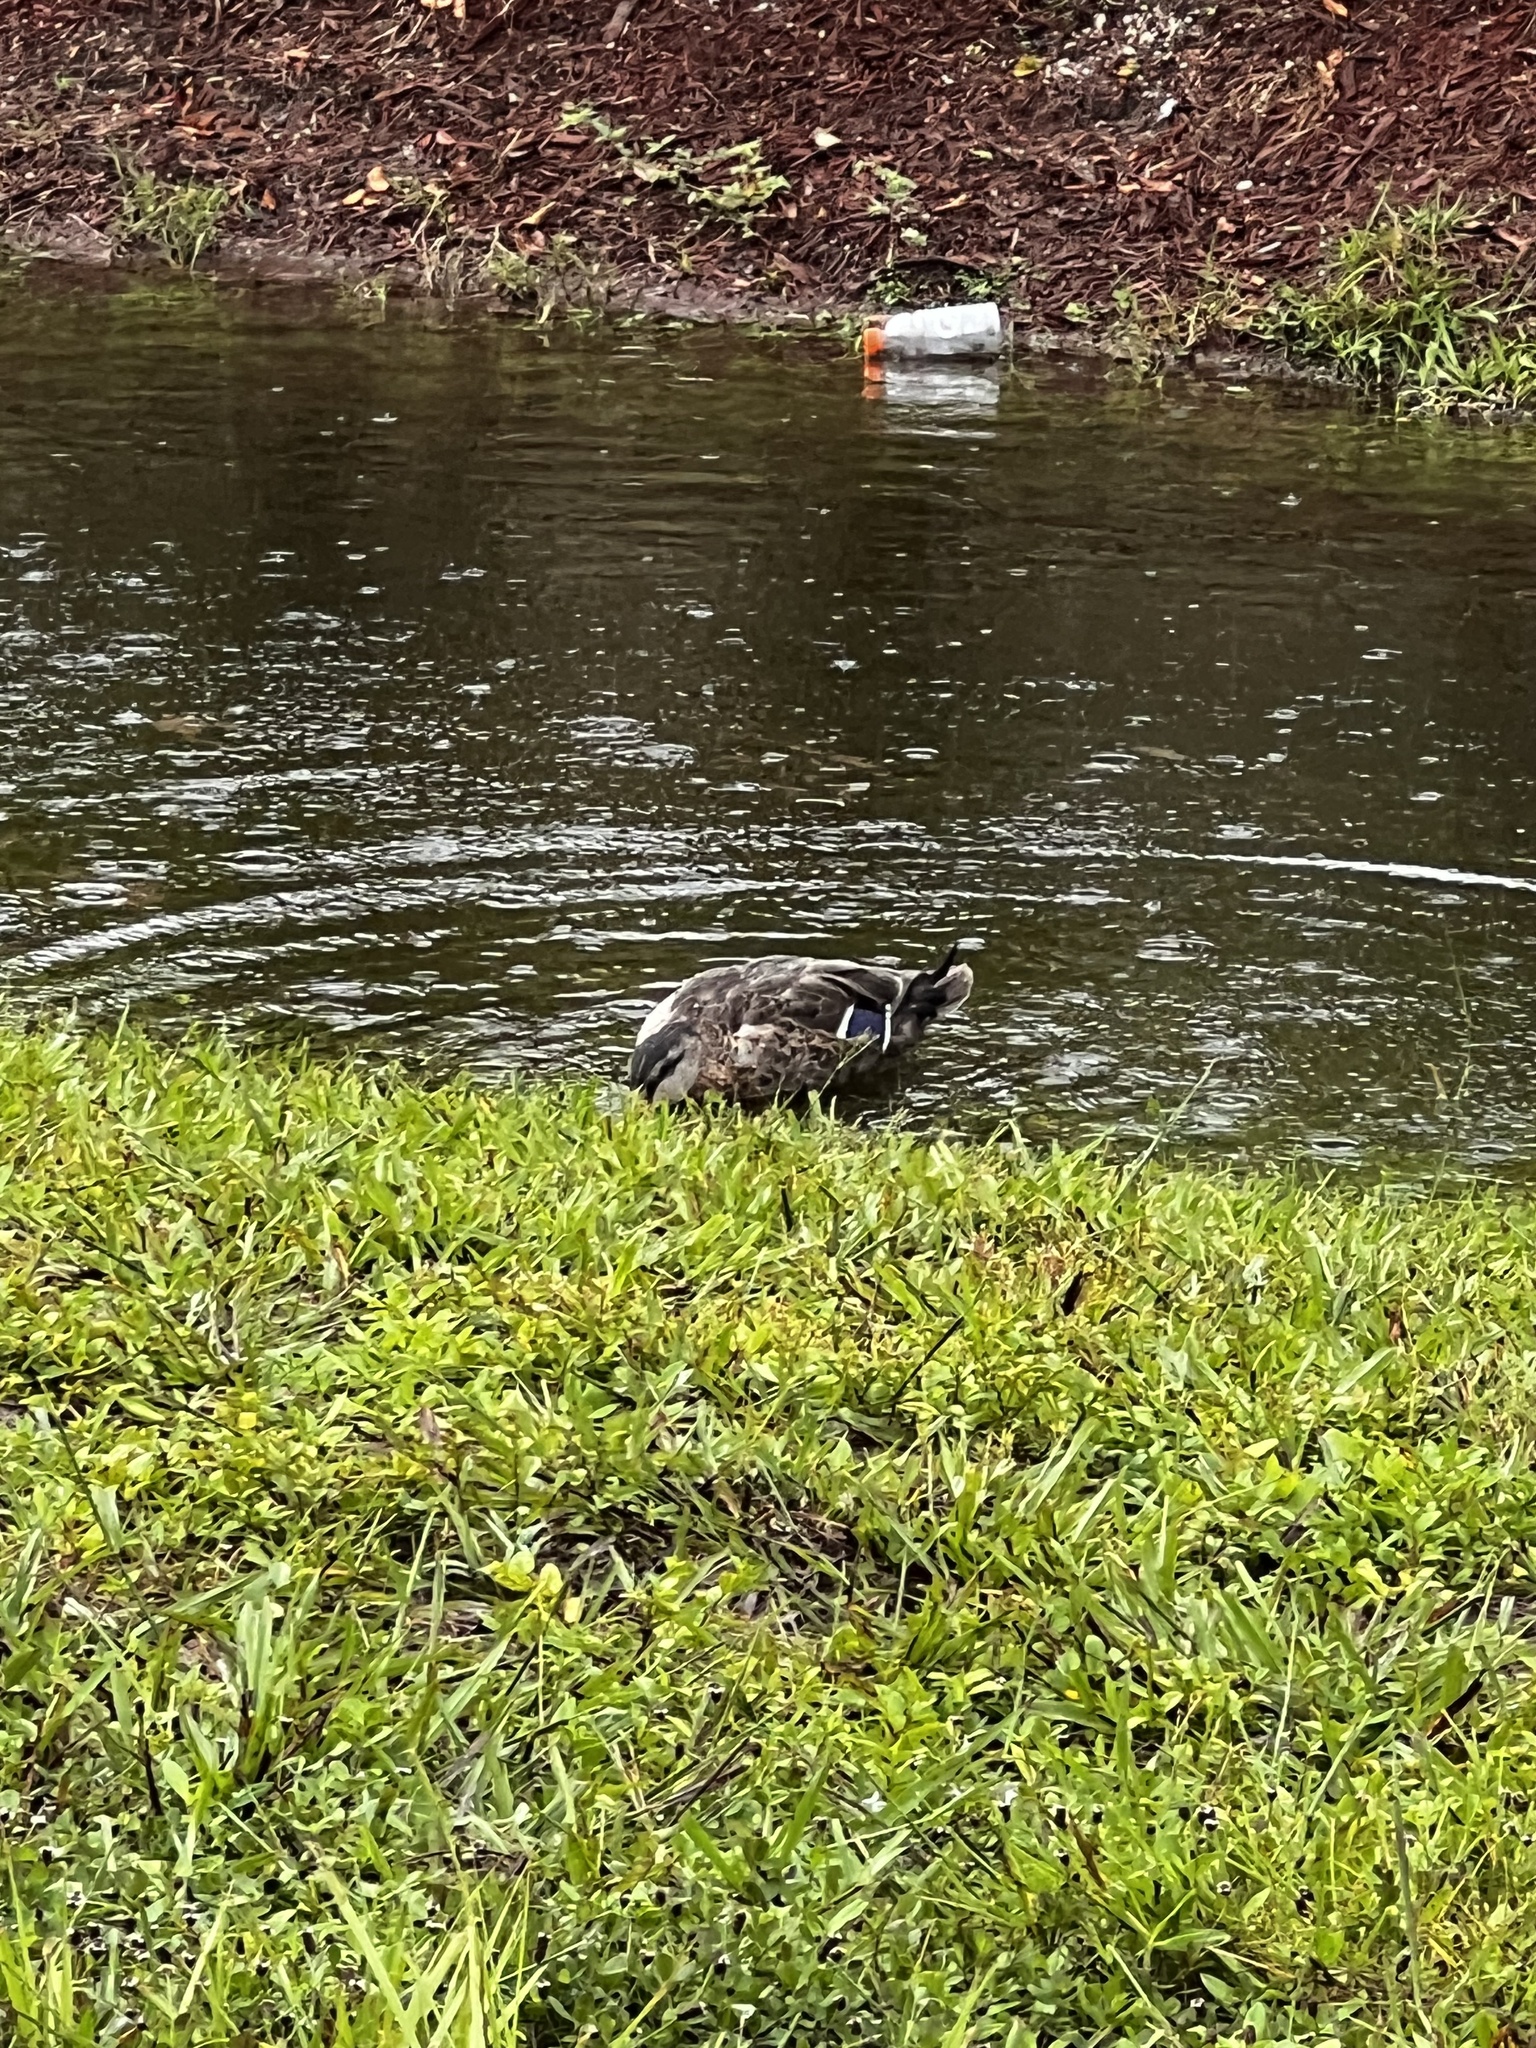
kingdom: Animalia
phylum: Chordata
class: Aves
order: Anseriformes
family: Anatidae
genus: Anas
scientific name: Anas
